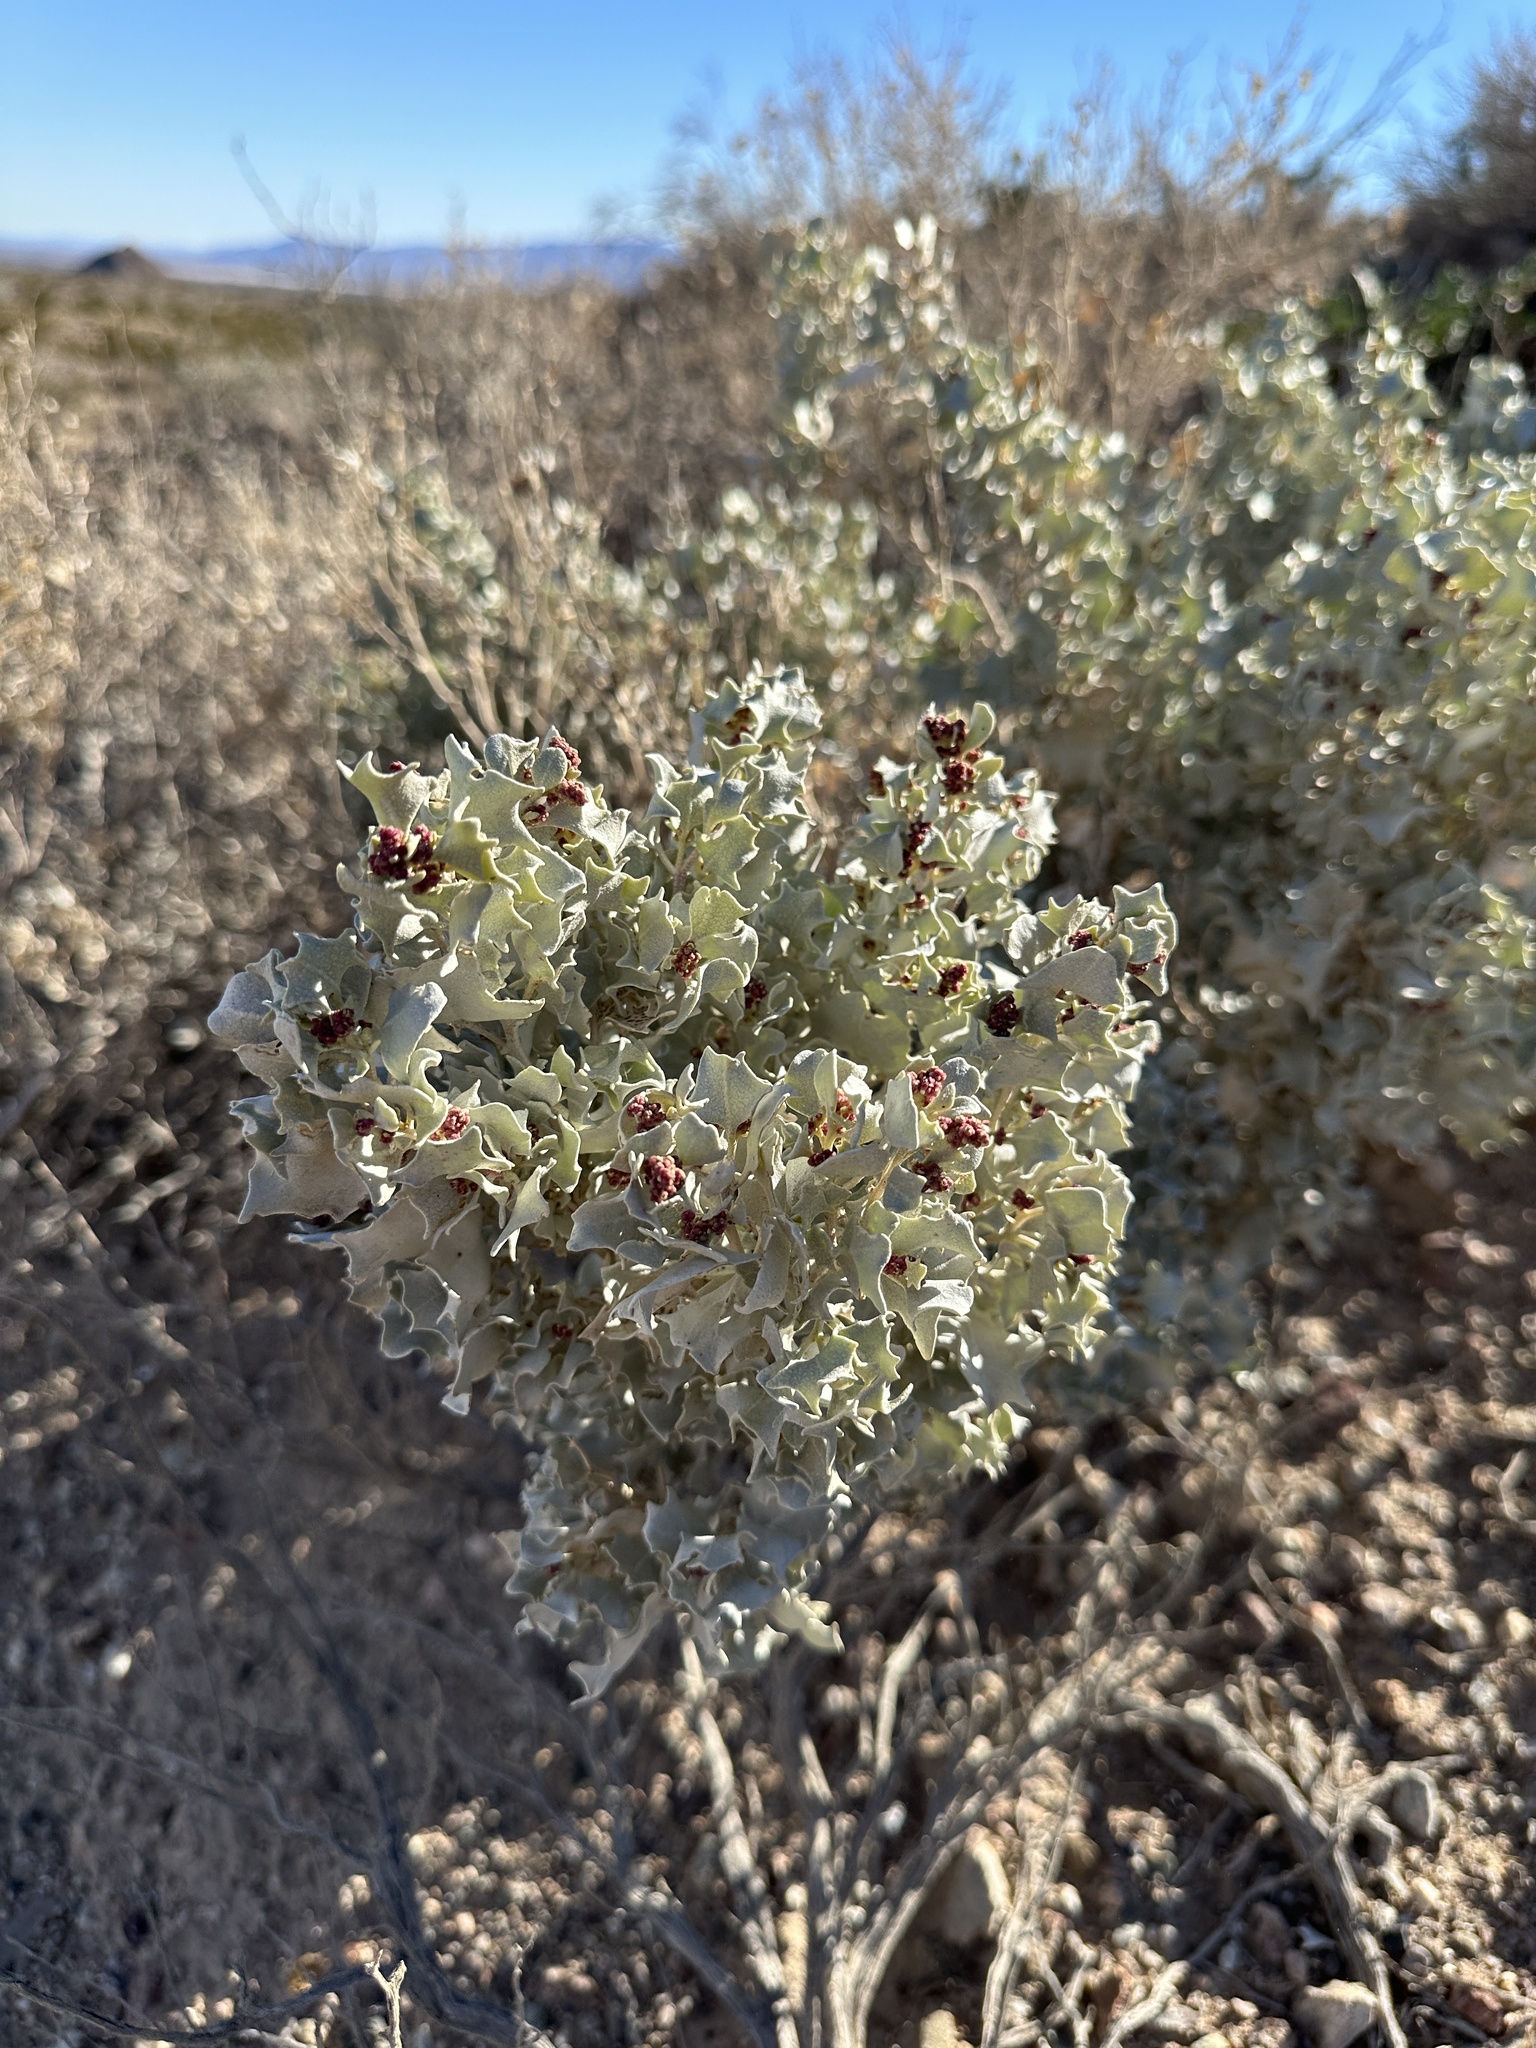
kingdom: Plantae
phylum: Tracheophyta
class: Magnoliopsida
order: Caryophyllales
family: Amaranthaceae
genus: Atriplex
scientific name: Atriplex hymenelytra
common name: Desert-holly
